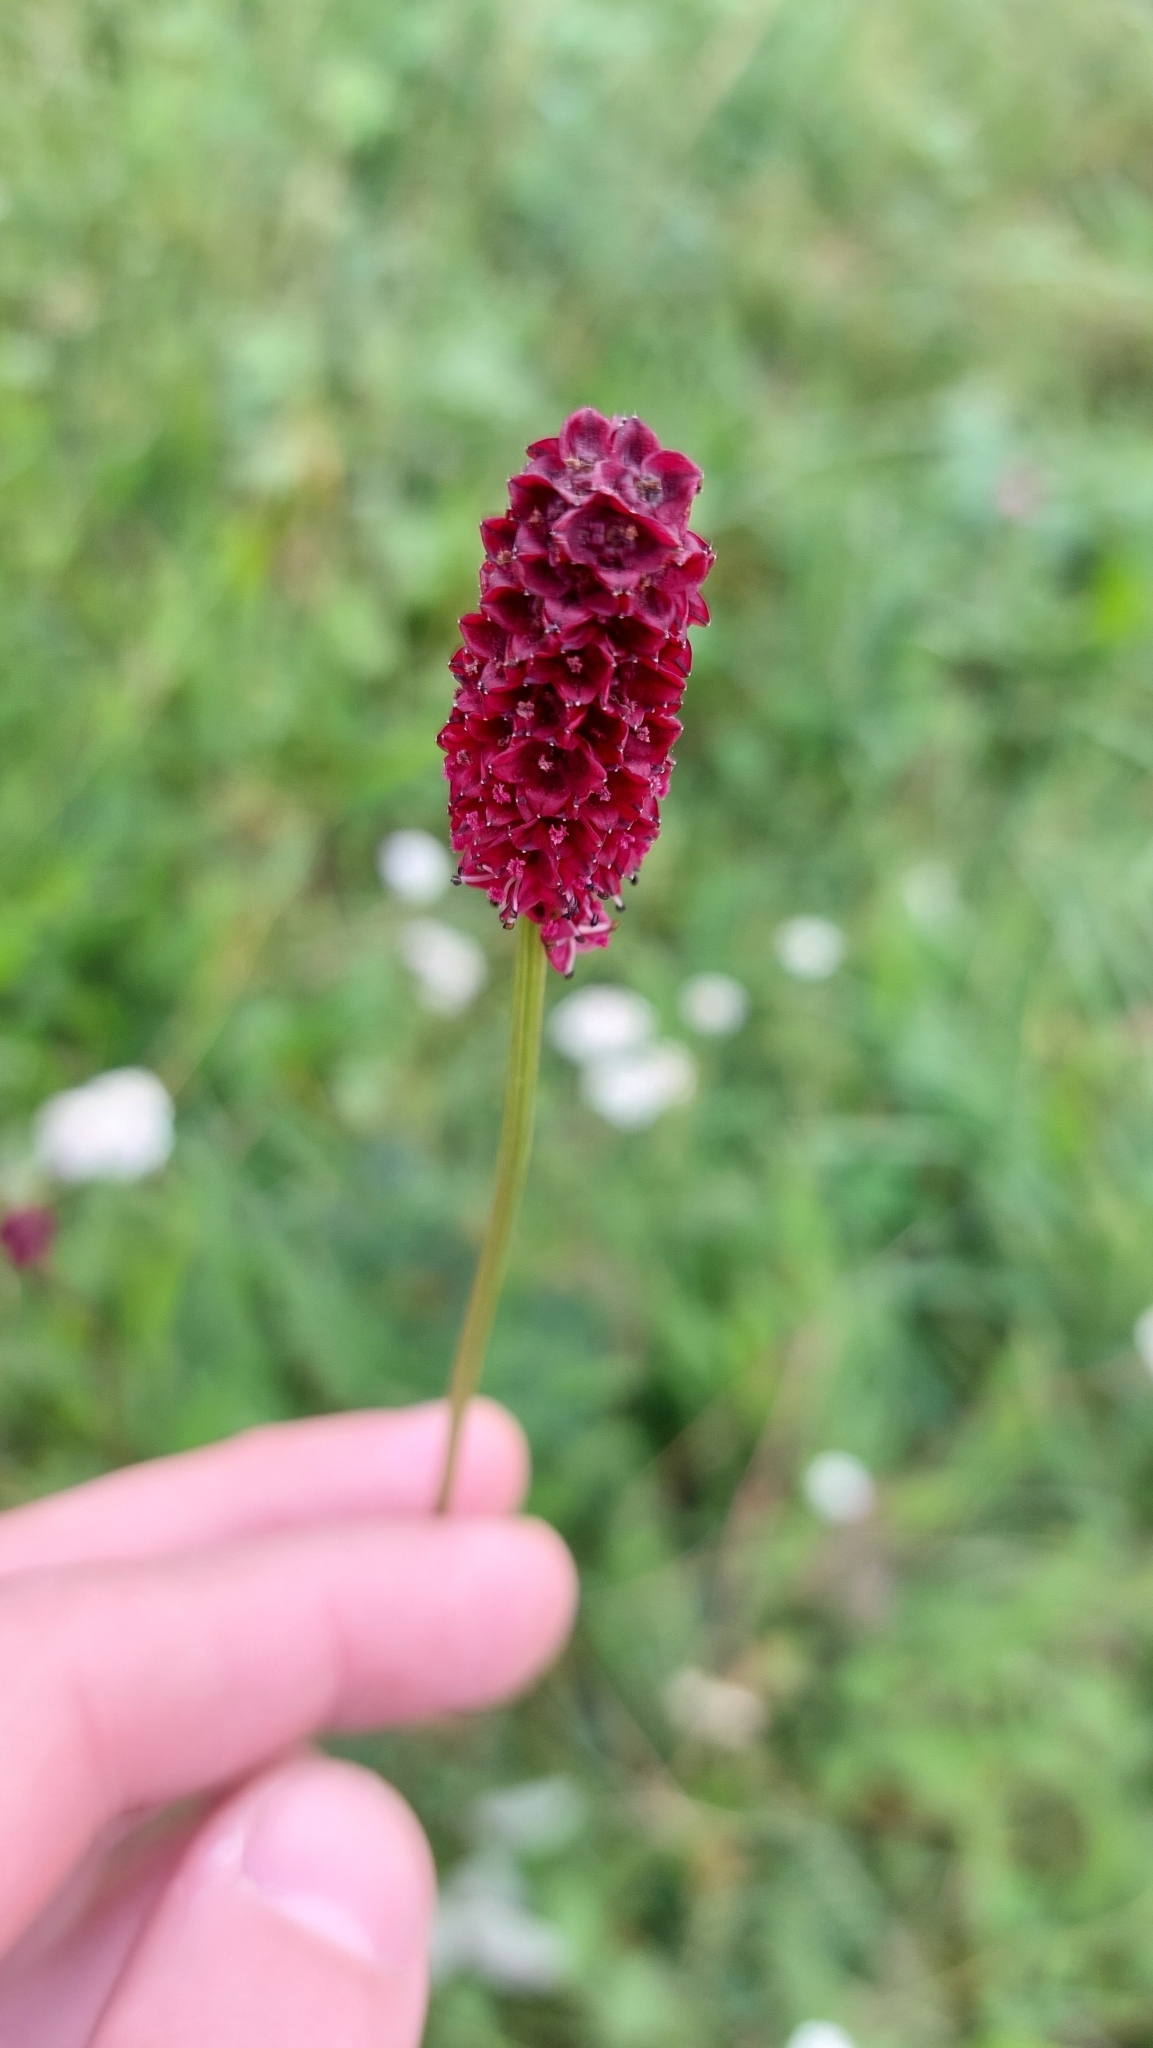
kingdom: Plantae
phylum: Tracheophyta
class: Magnoliopsida
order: Rosales
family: Rosaceae
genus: Sanguisorba
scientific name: Sanguisorba officinalis
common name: Great burnet
